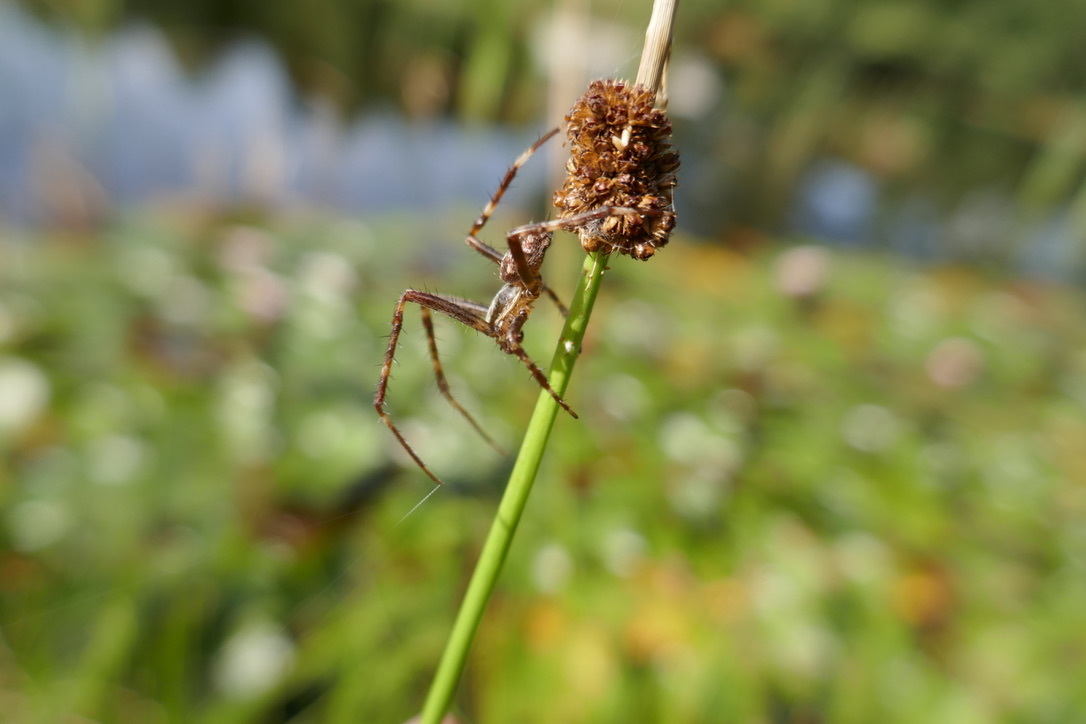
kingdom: Animalia
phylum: Arthropoda
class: Arachnida
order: Araneae
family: Araneidae
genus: Araneus
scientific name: Araneus diadematus
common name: Cross orbweaver
